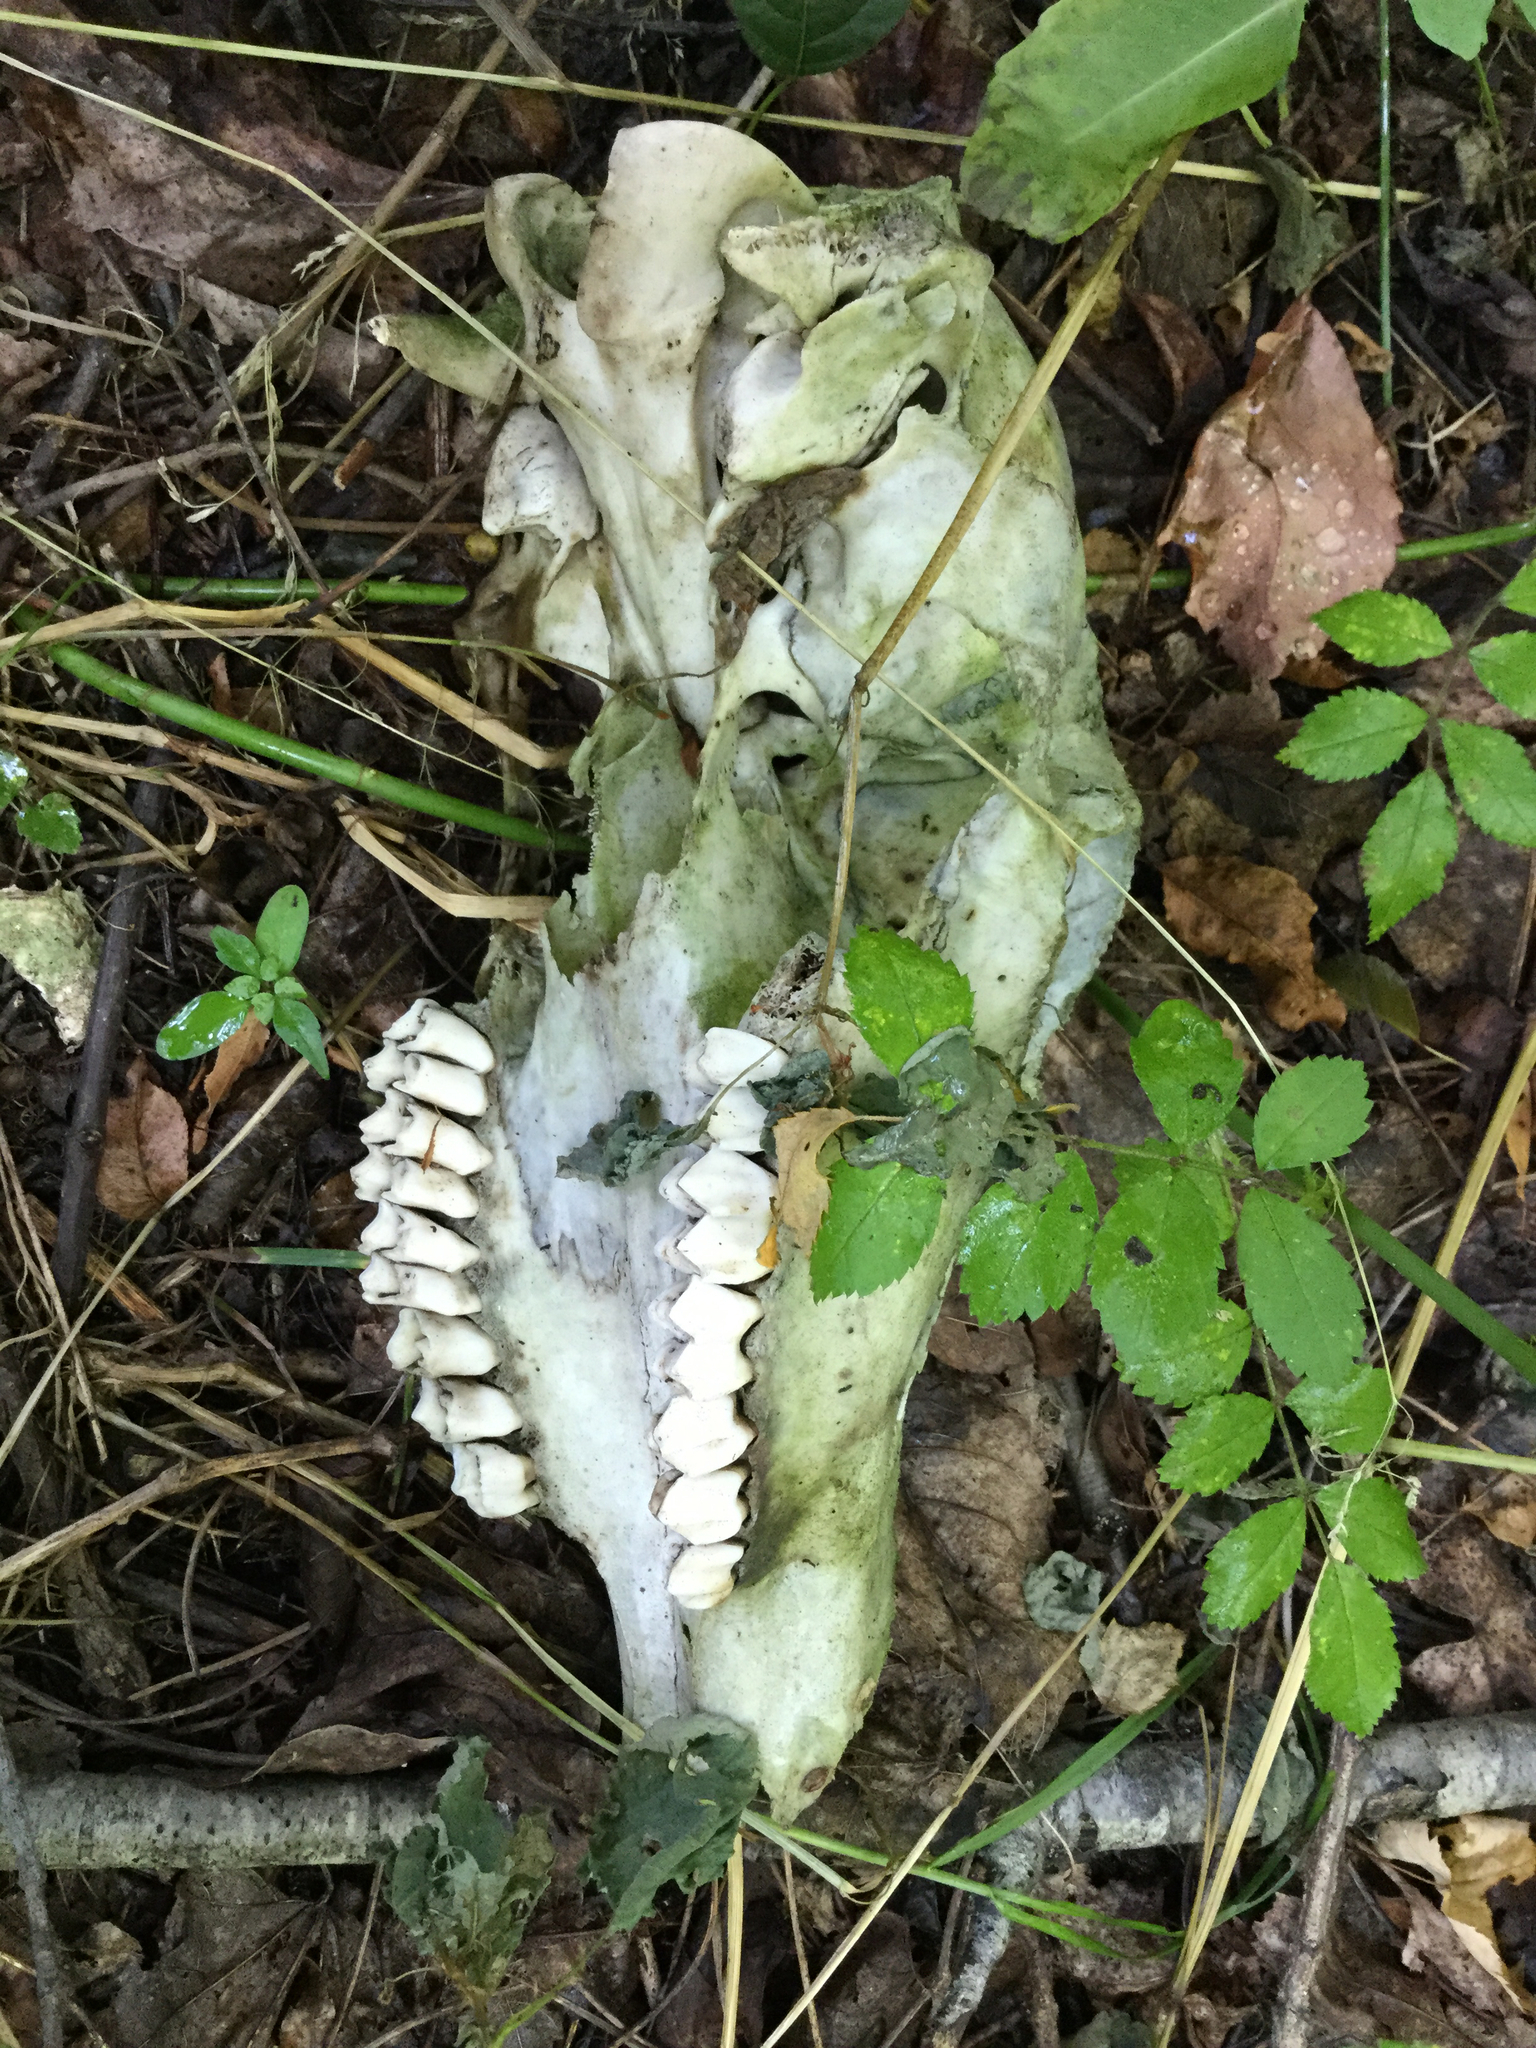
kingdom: Animalia
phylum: Chordata
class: Mammalia
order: Artiodactyla
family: Cervidae
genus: Odocoileus
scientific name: Odocoileus virginianus
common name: White-tailed deer
